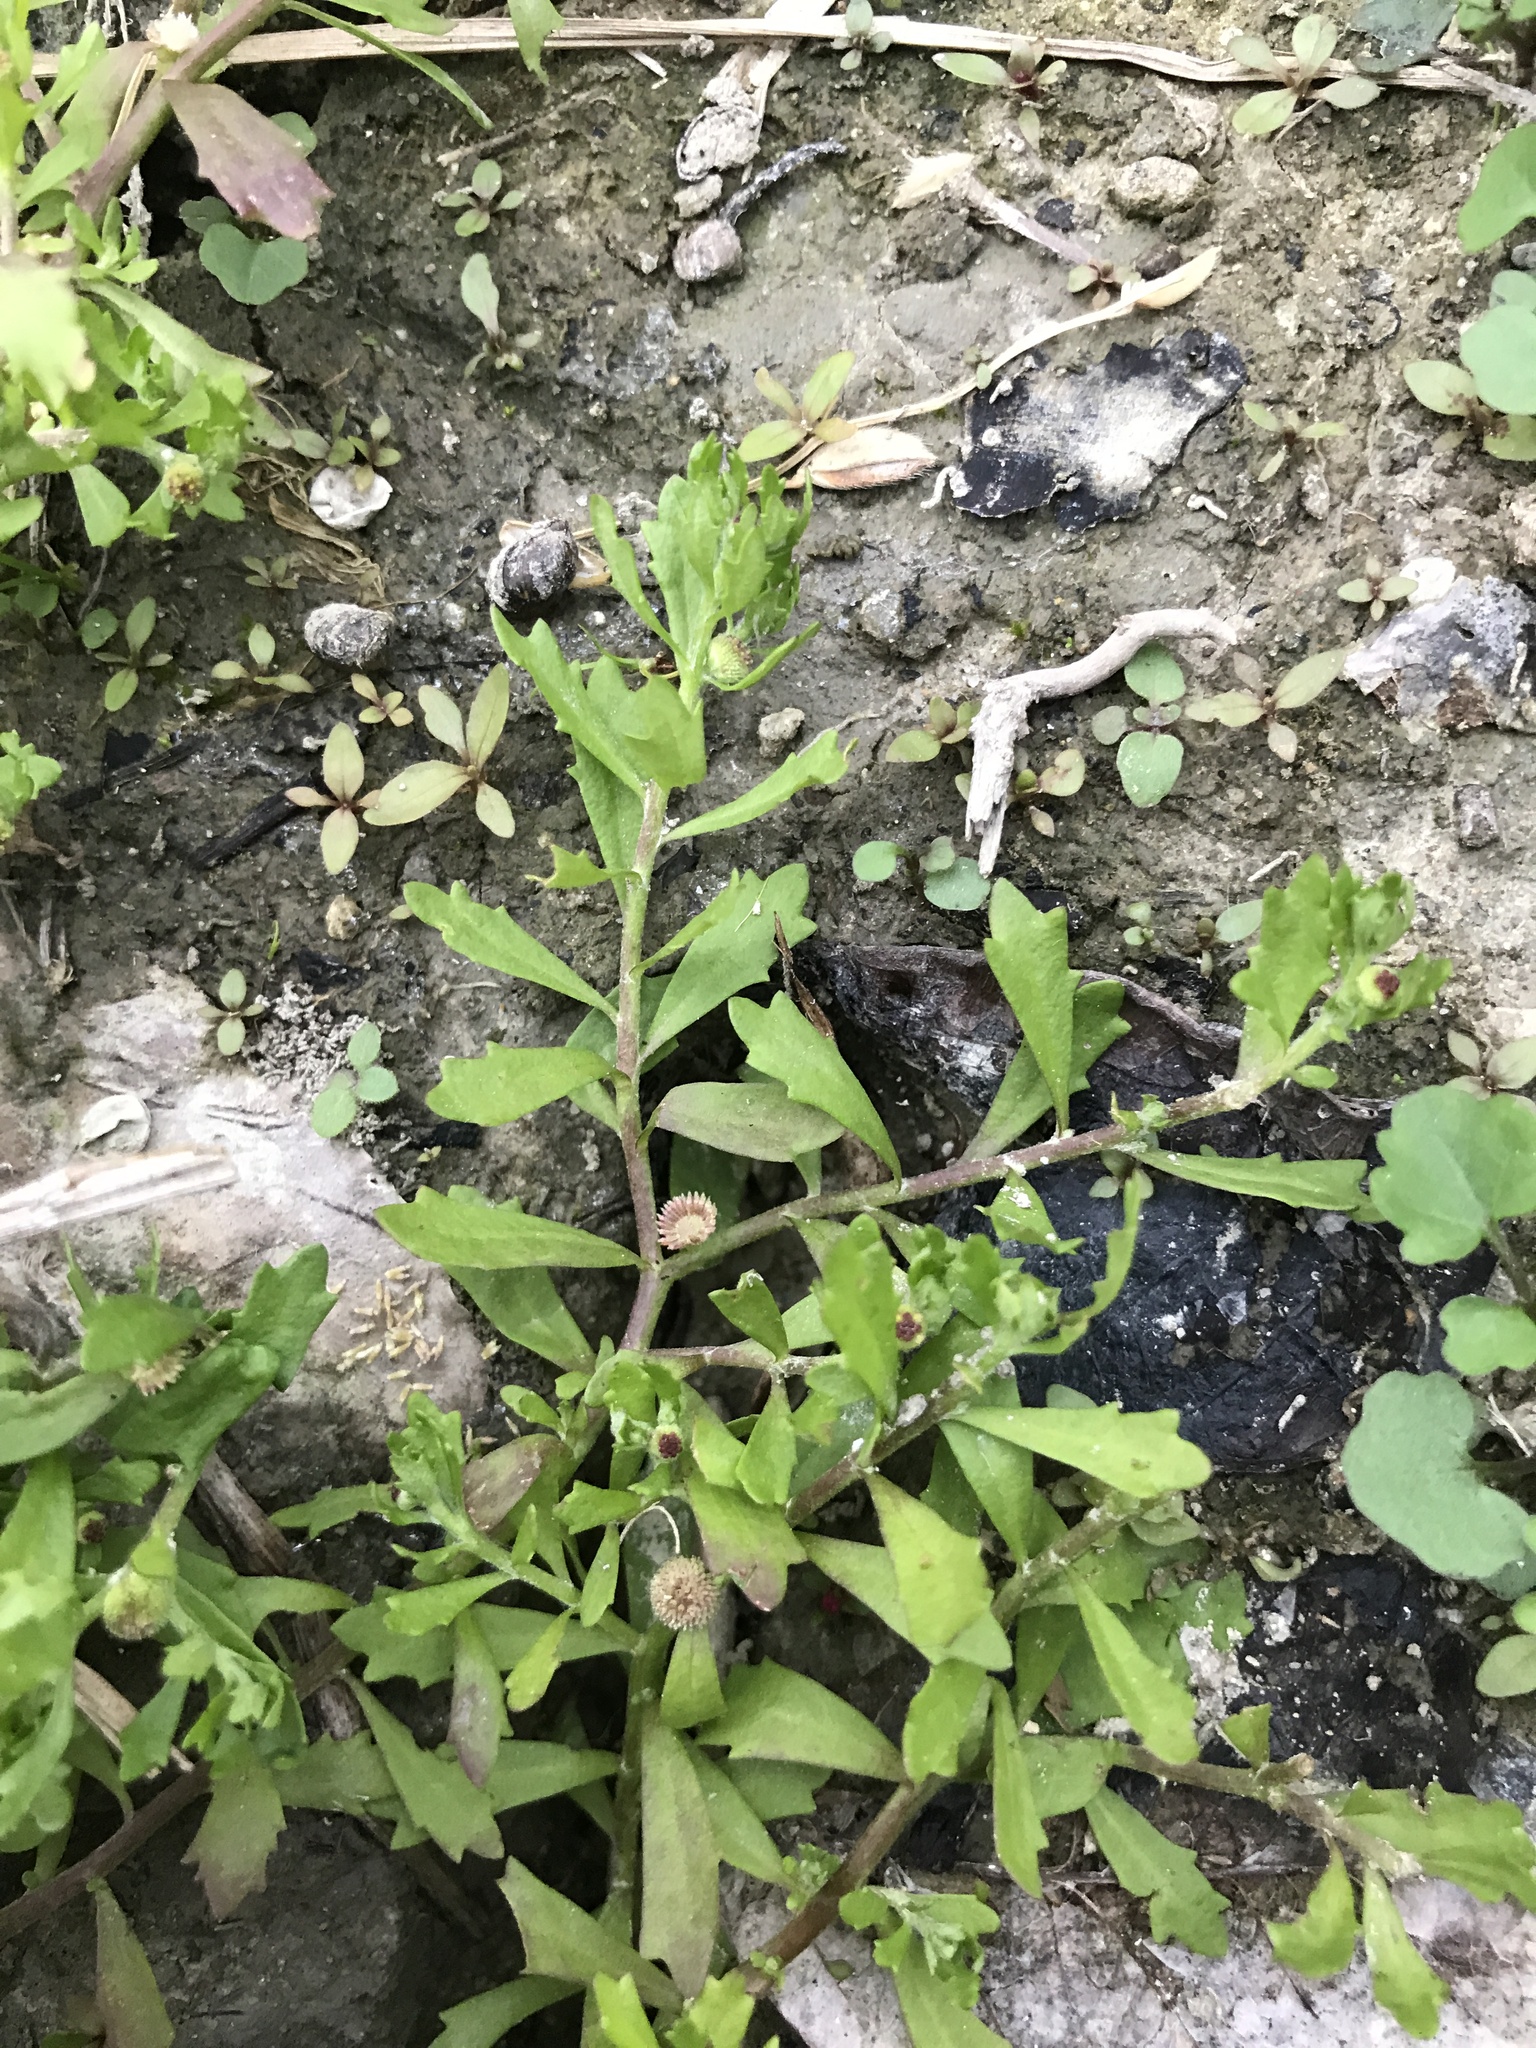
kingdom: Plantae
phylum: Tracheophyta
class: Magnoliopsida
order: Asterales
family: Asteraceae
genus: Centipeda
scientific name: Centipeda minima
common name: Spreading sneezeweed
